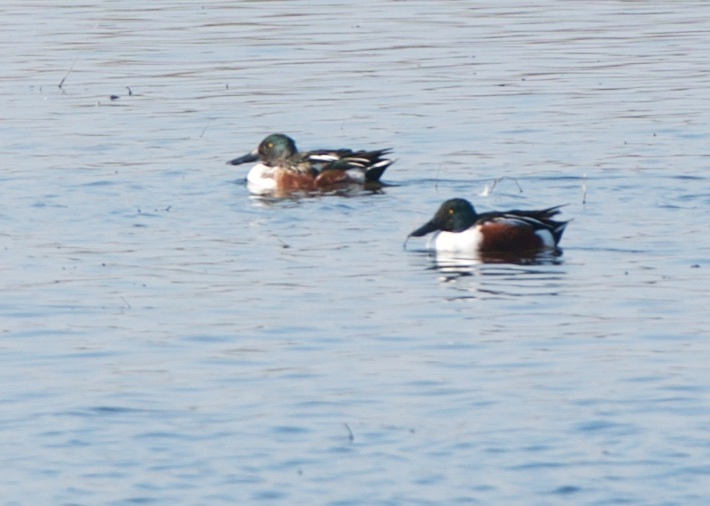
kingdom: Animalia
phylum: Chordata
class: Aves
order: Anseriformes
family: Anatidae
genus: Spatula
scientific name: Spatula clypeata
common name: Northern shoveler
